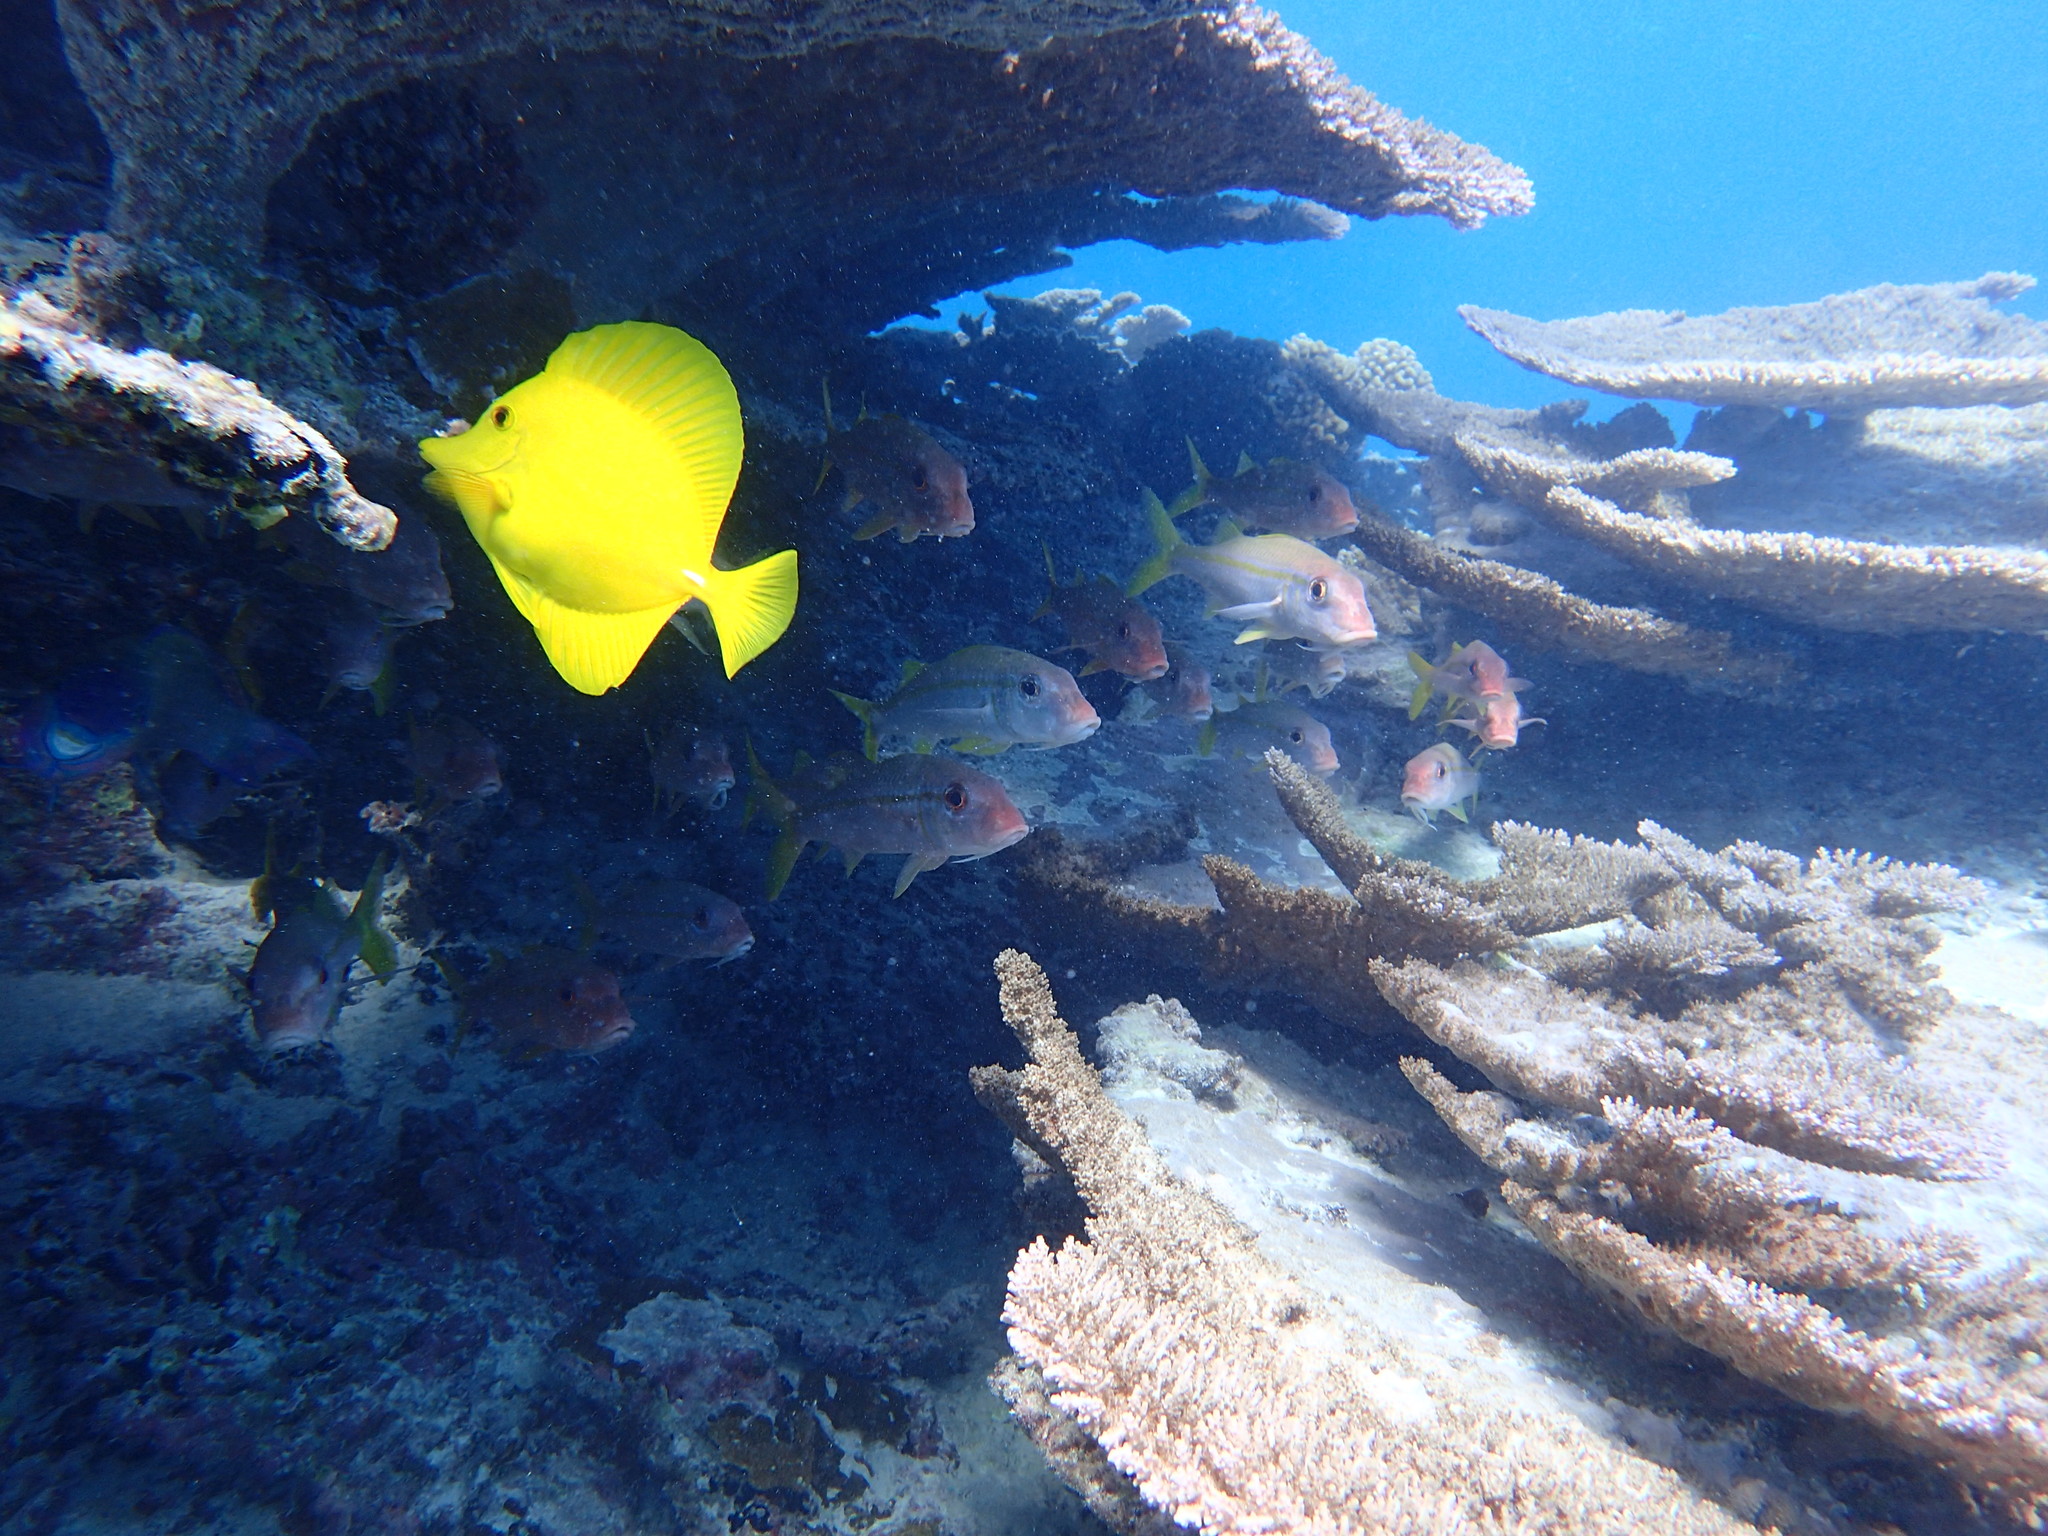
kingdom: Animalia
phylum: Chordata
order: Perciformes
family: Acanthuridae
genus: Zebrasoma
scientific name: Zebrasoma flavescens
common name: Yellow tang
